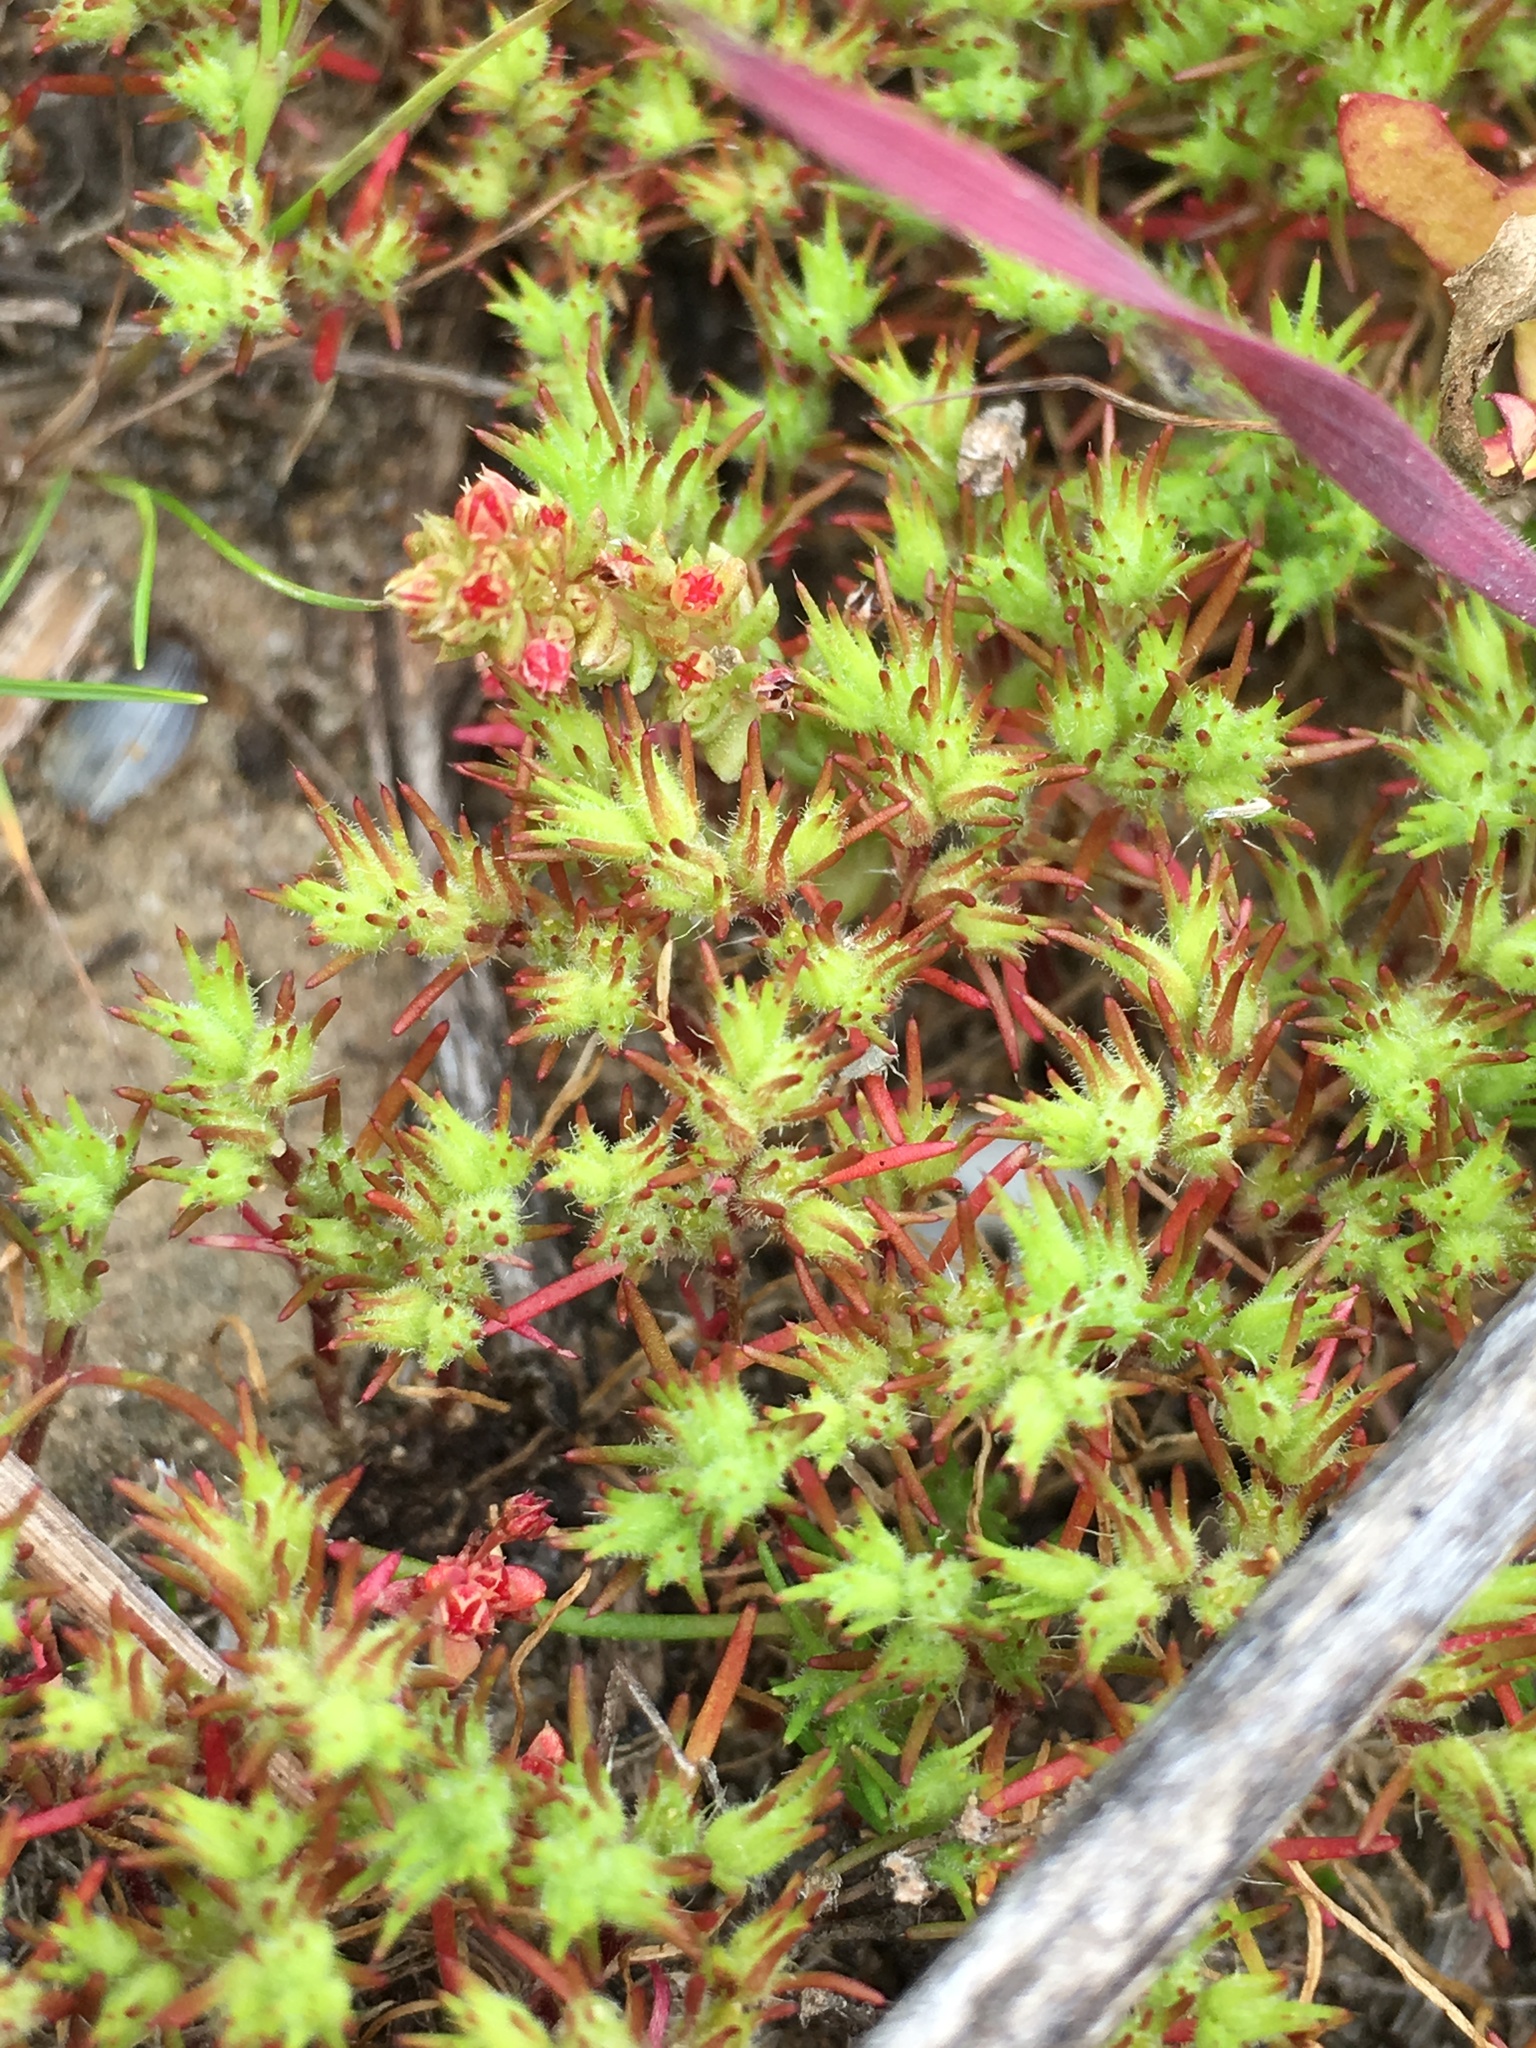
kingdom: Plantae
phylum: Tracheophyta
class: Magnoliopsida
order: Caryophyllales
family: Caryophyllaceae
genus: Loeflingia
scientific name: Loeflingia squarrosa
